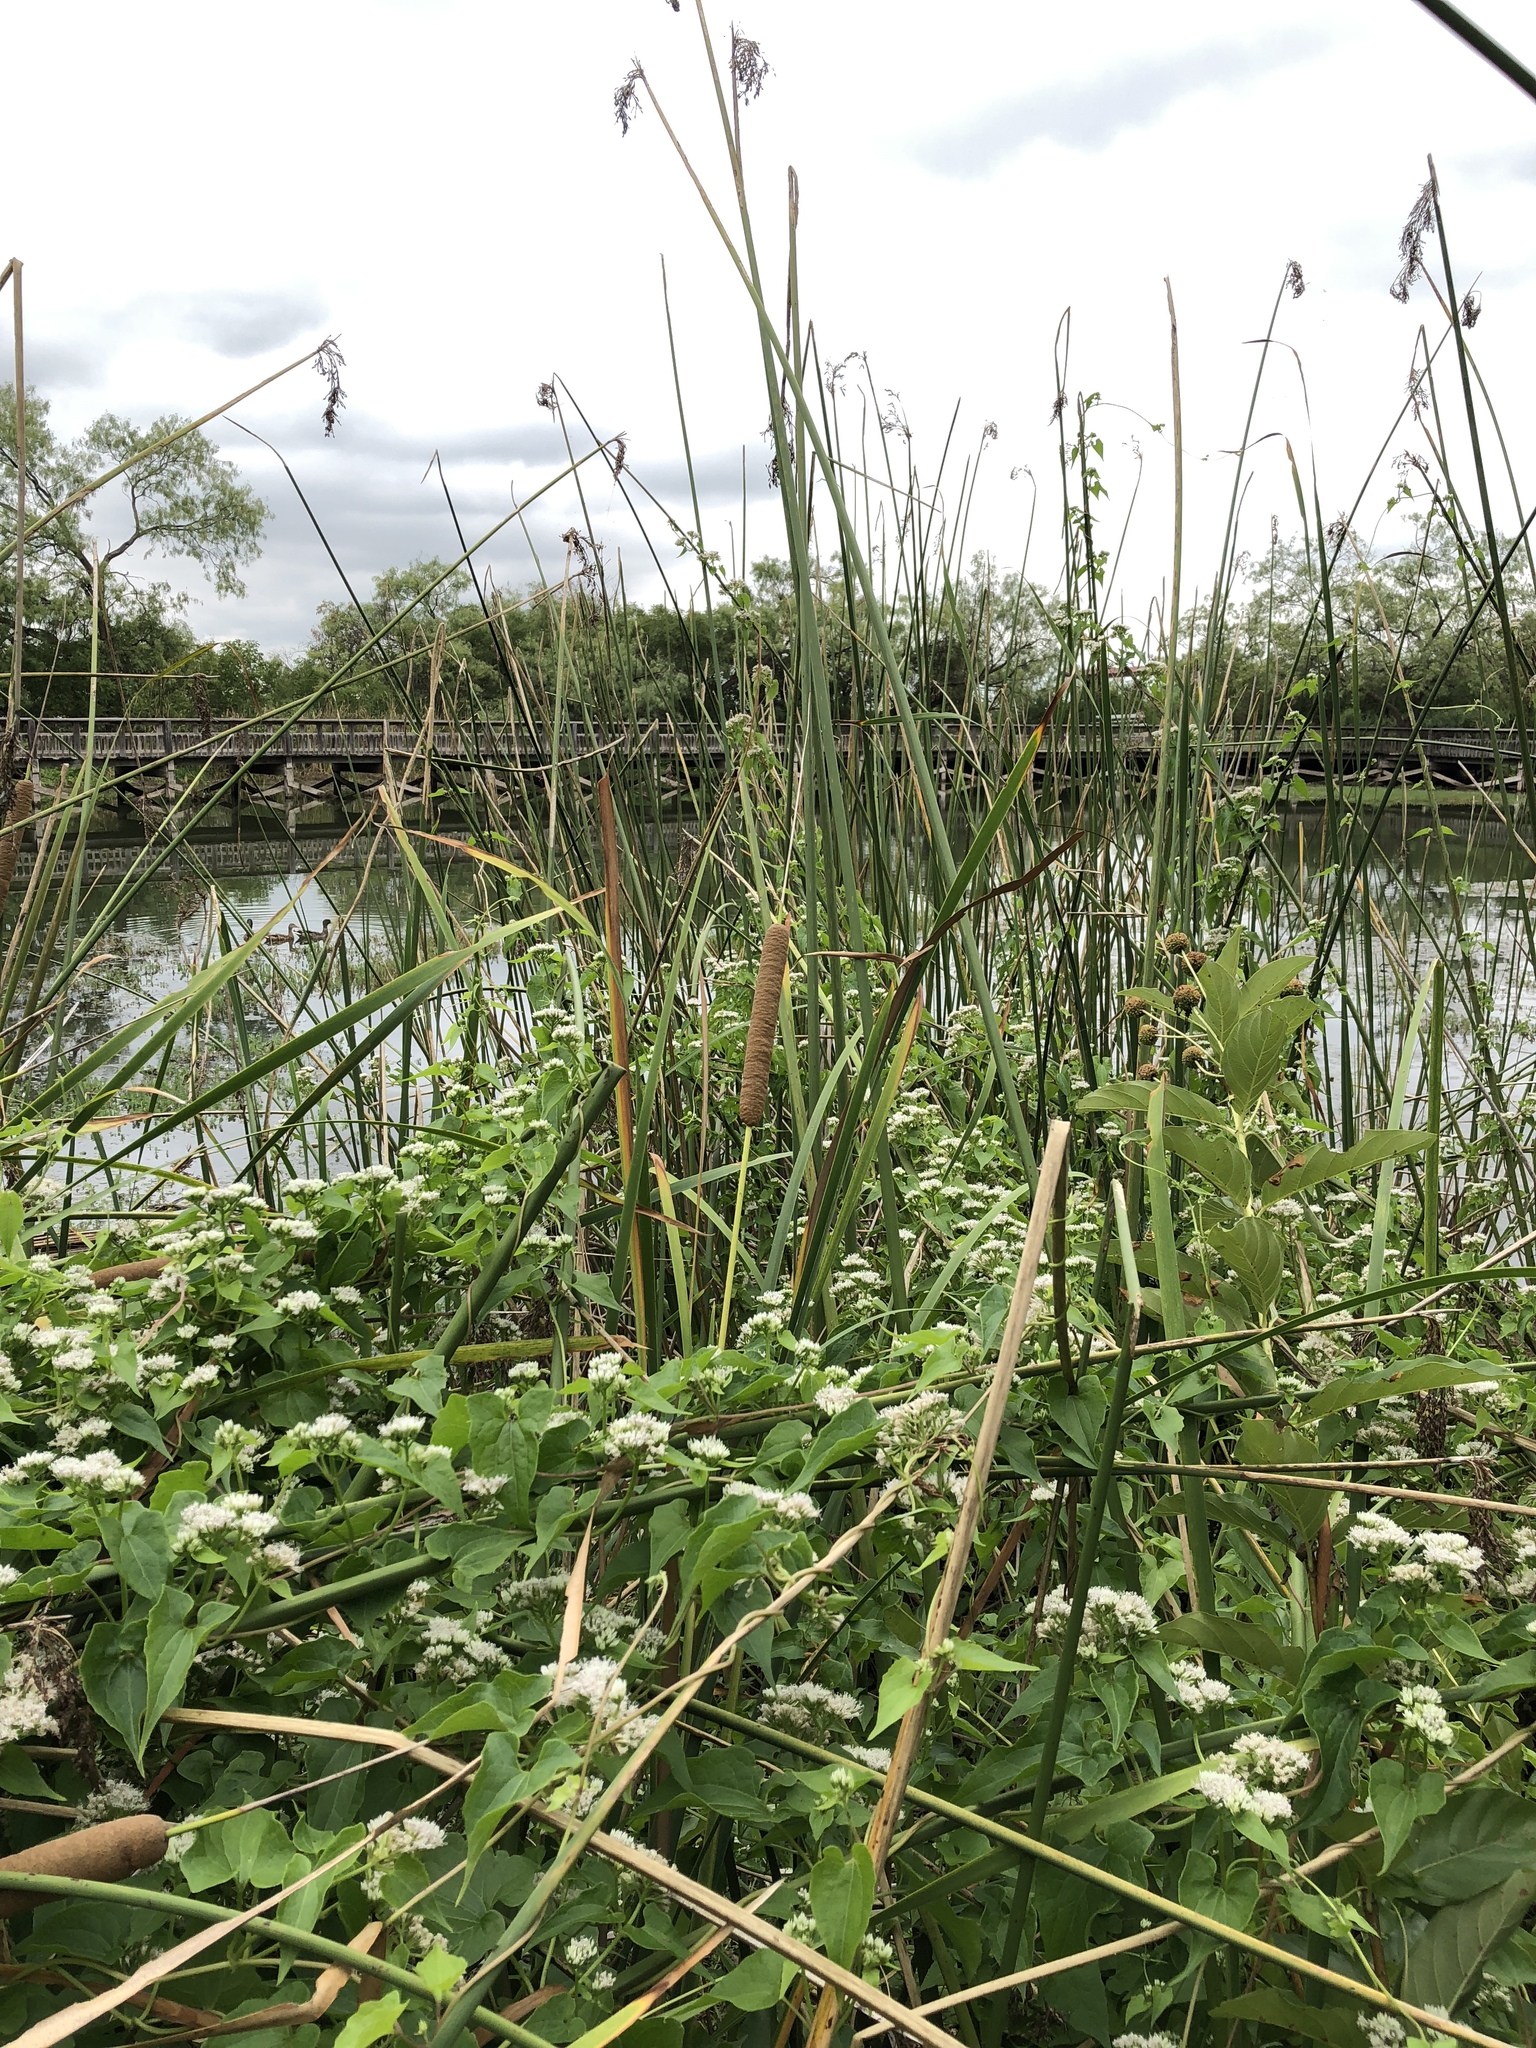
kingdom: Plantae
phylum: Tracheophyta
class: Liliopsida
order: Poales
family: Typhaceae
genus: Typha
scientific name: Typha domingensis
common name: Southern cattail
